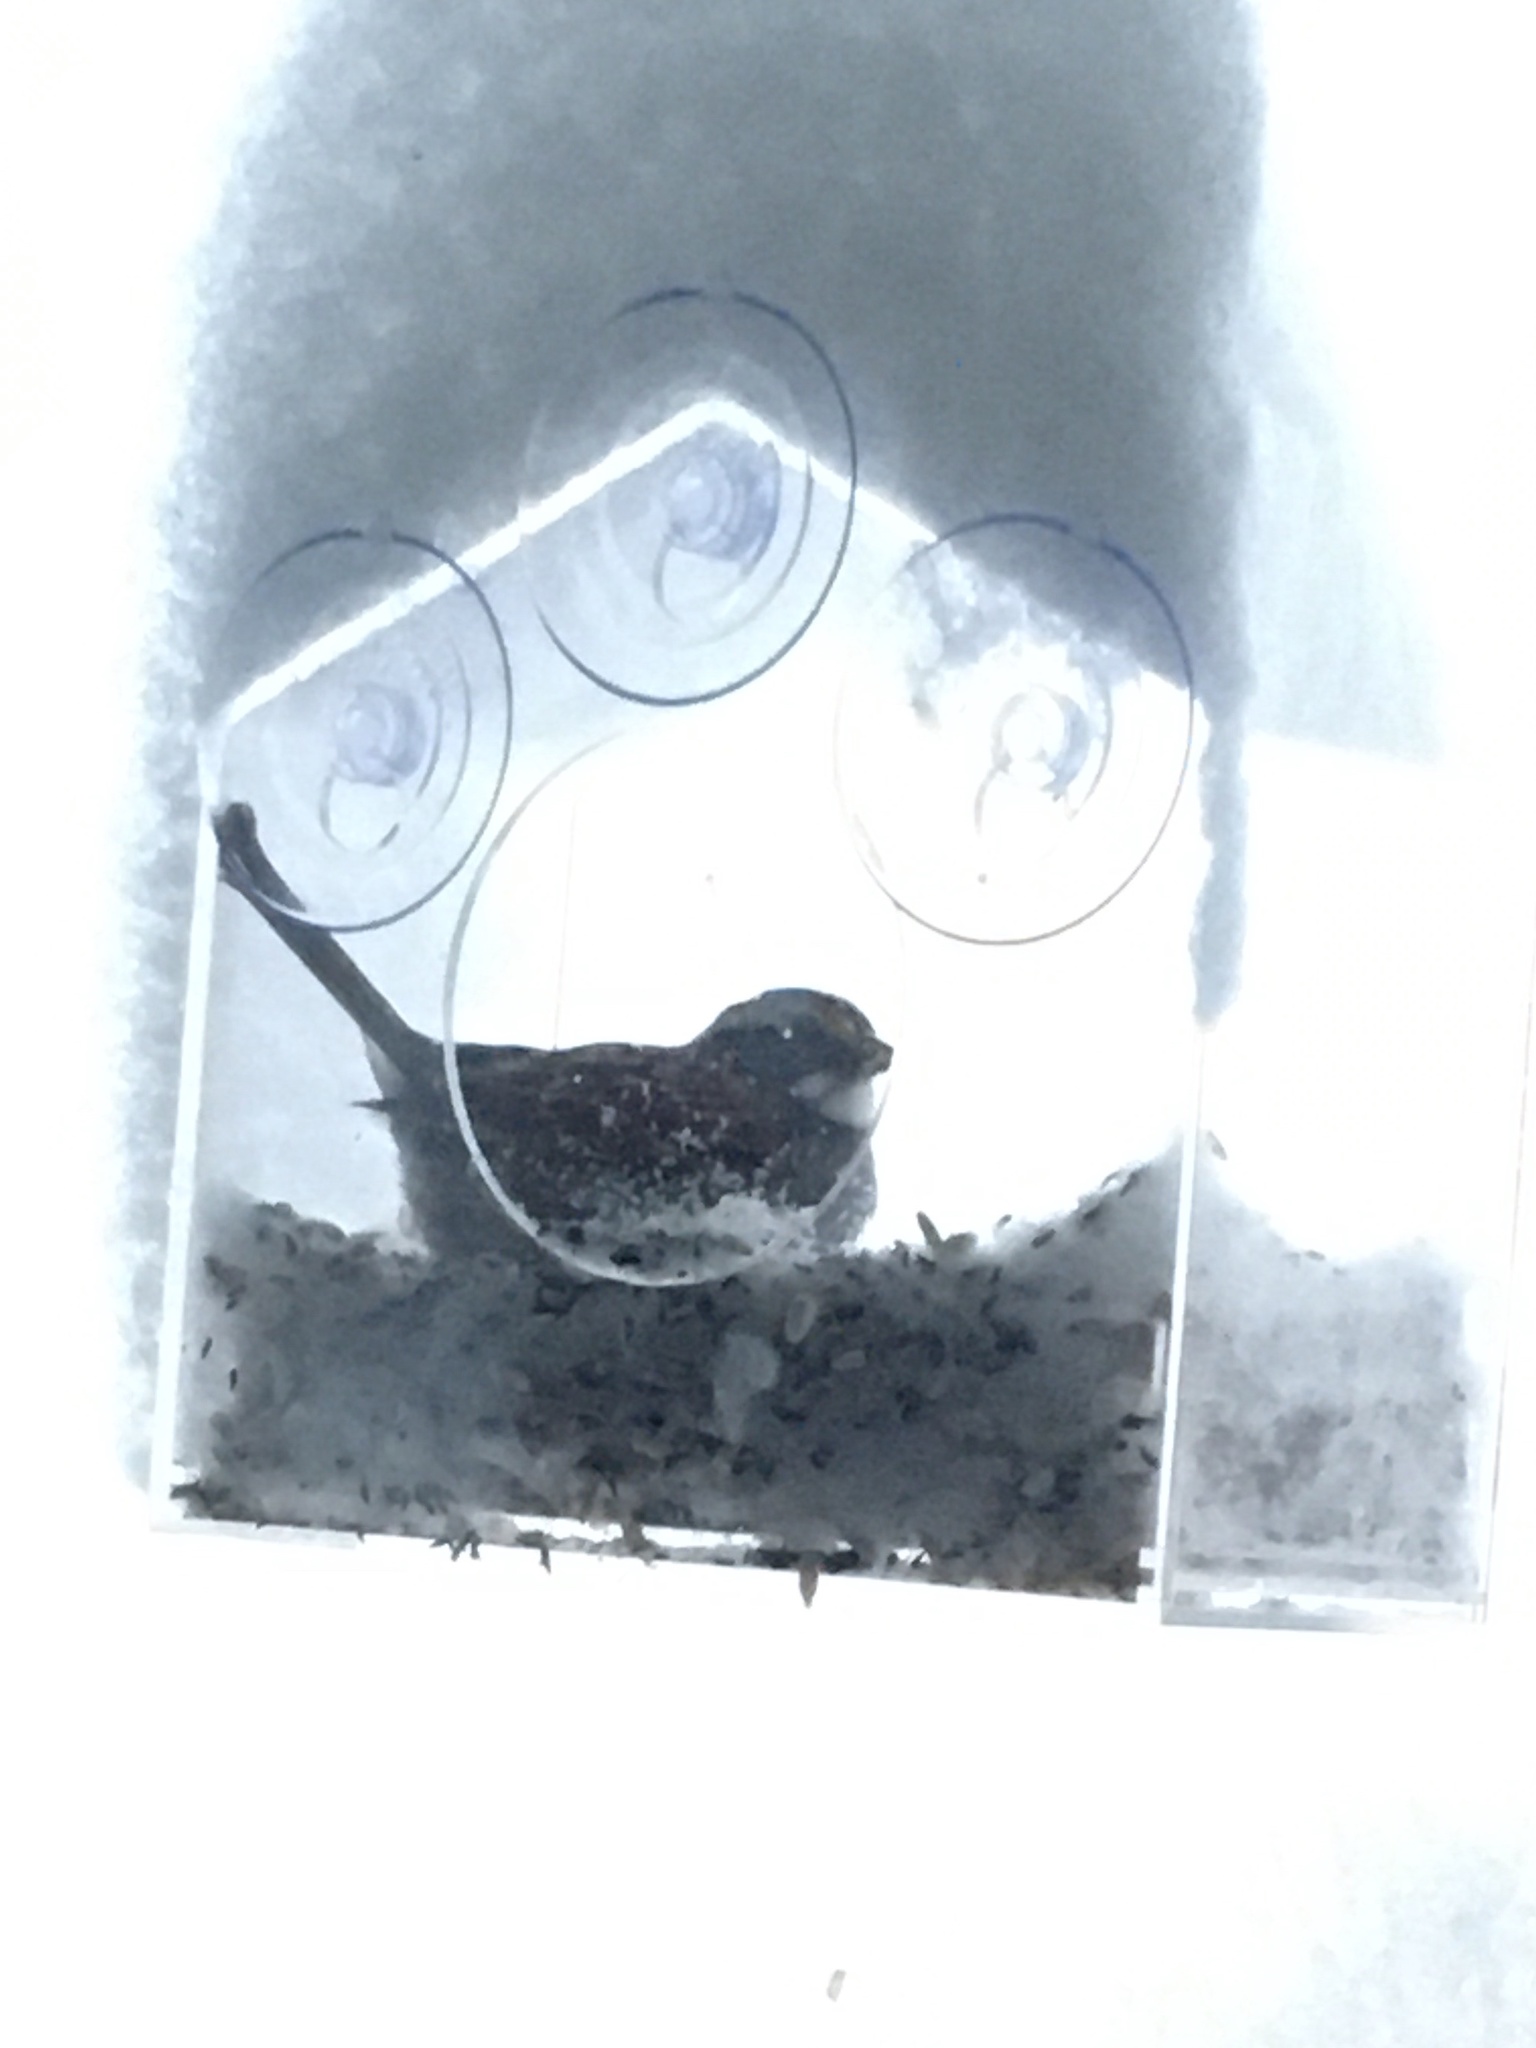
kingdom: Animalia
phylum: Chordata
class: Aves
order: Passeriformes
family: Passerellidae
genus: Zonotrichia
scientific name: Zonotrichia albicollis
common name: White-throated sparrow
